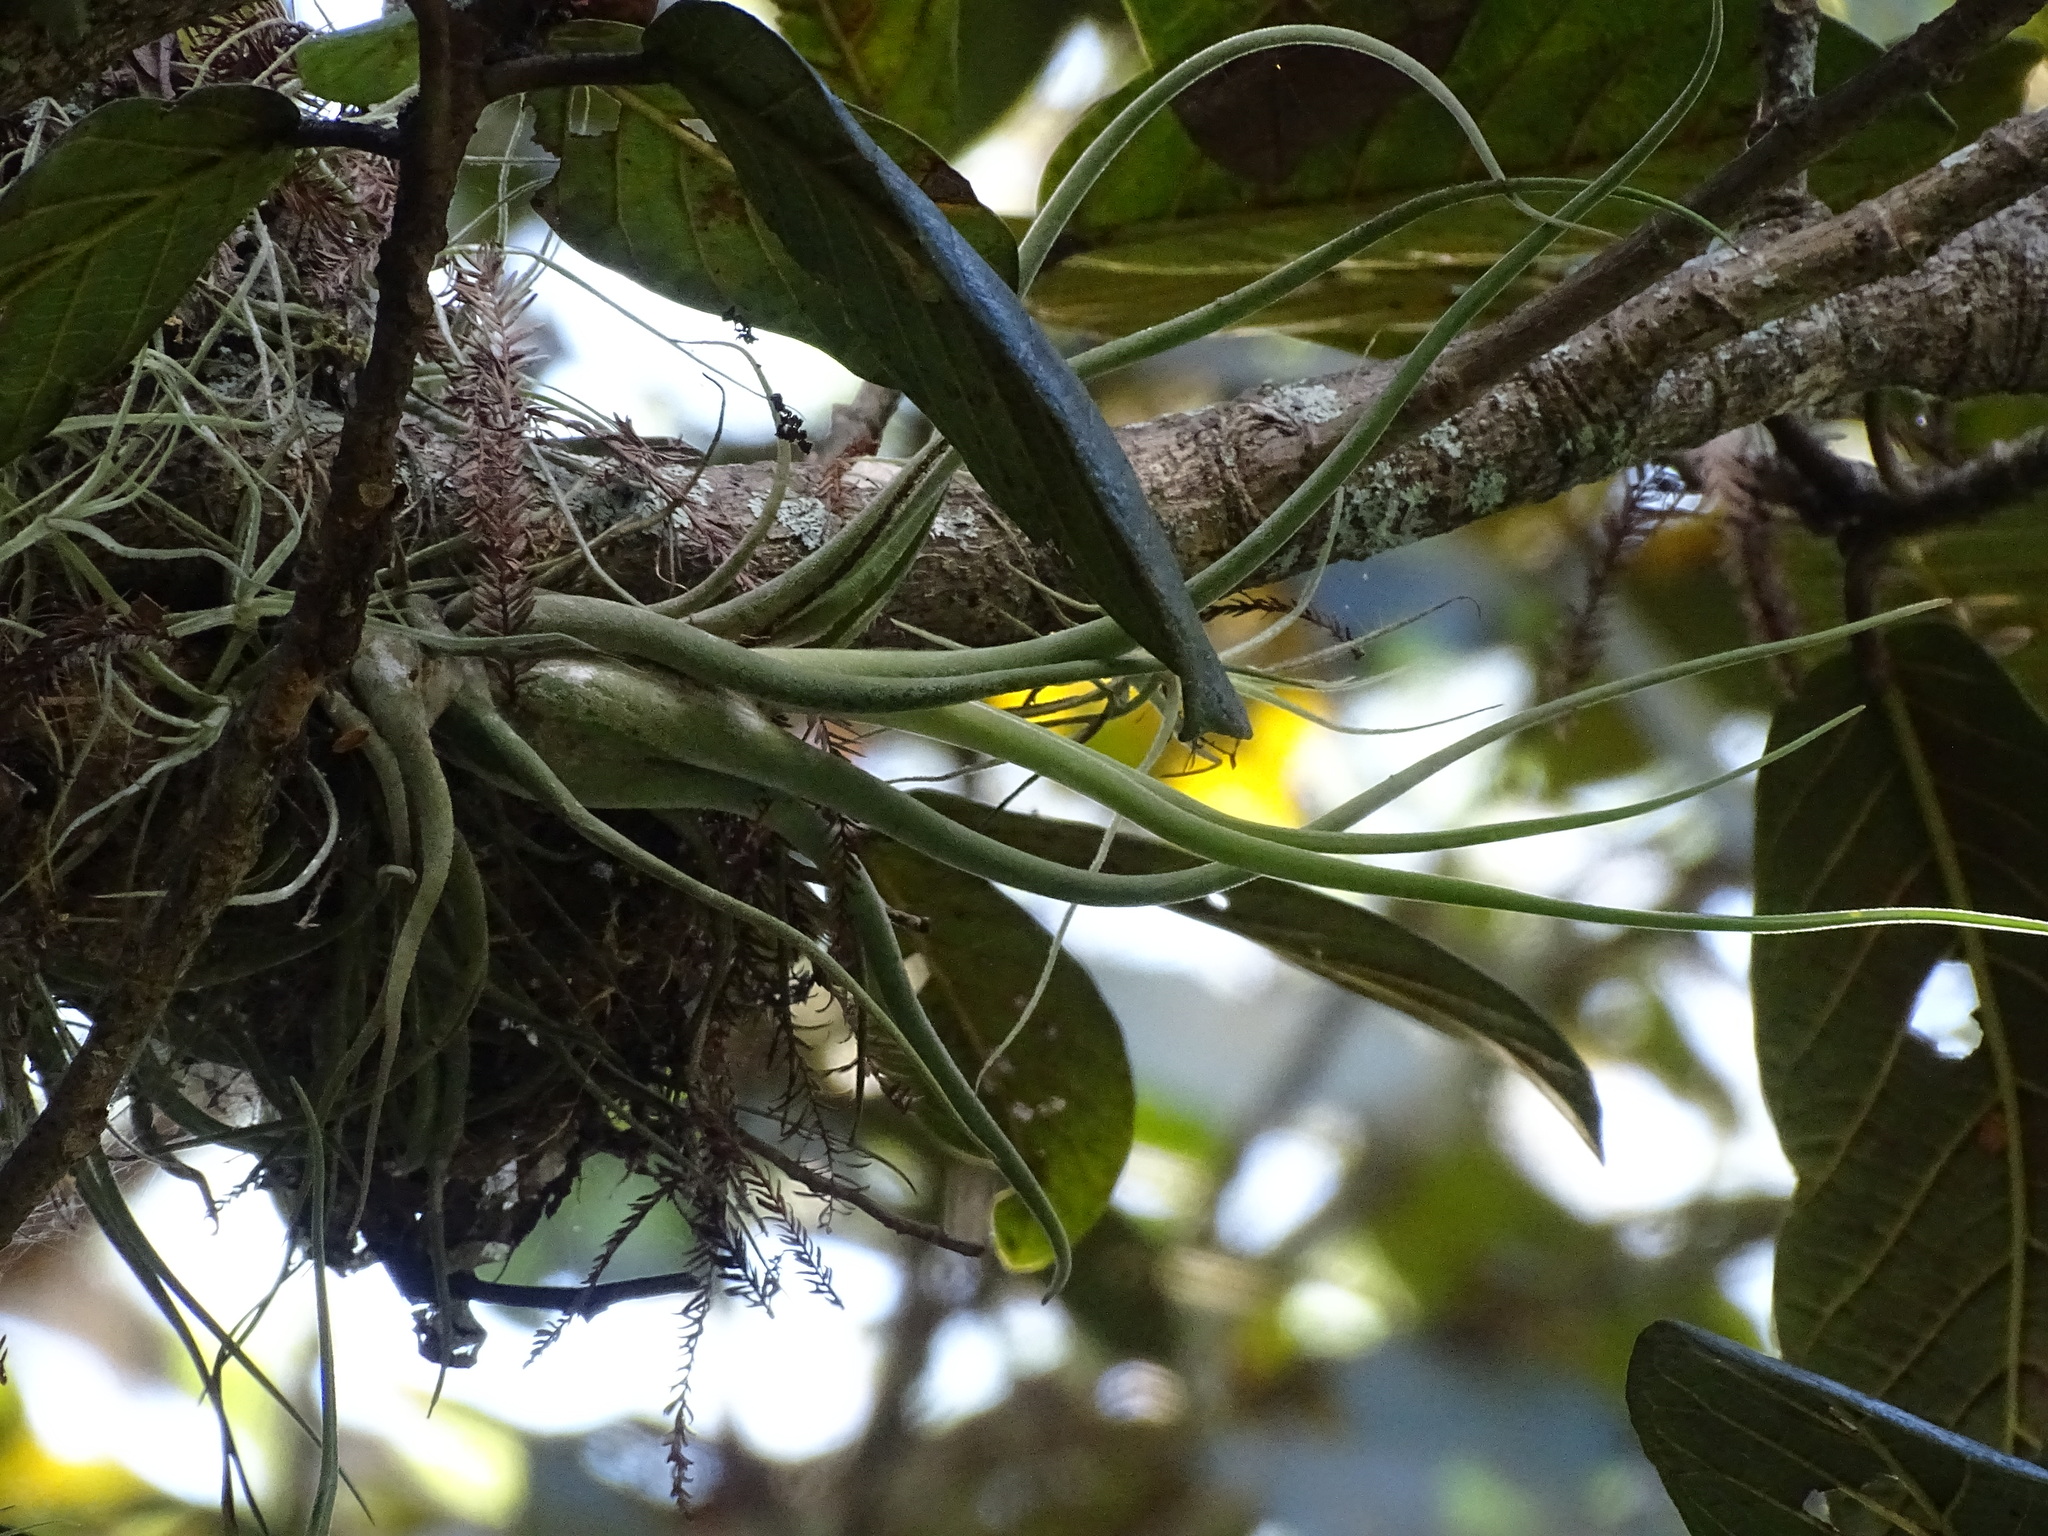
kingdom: Plantae
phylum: Tracheophyta
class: Liliopsida
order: Poales
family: Bromeliaceae
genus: Tillandsia
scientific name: Tillandsia caput-medusae
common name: Octopus plant
